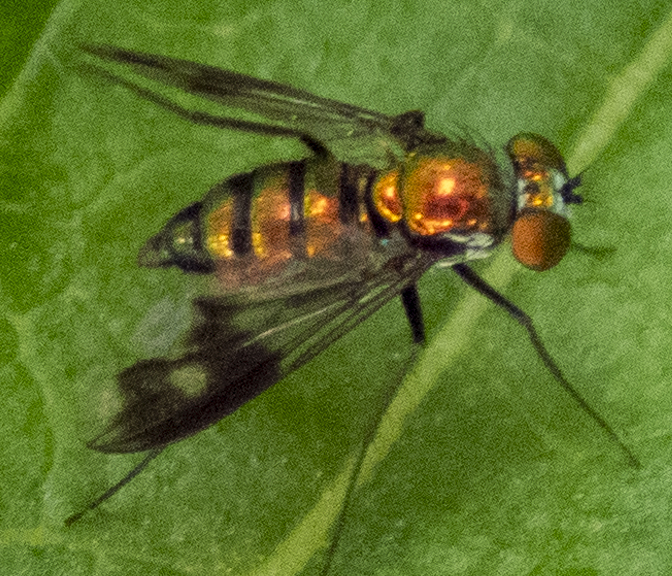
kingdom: Animalia
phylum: Arthropoda
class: Insecta
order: Diptera
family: Dolichopodidae
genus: Condylostylus
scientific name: Condylostylus patibulatus
